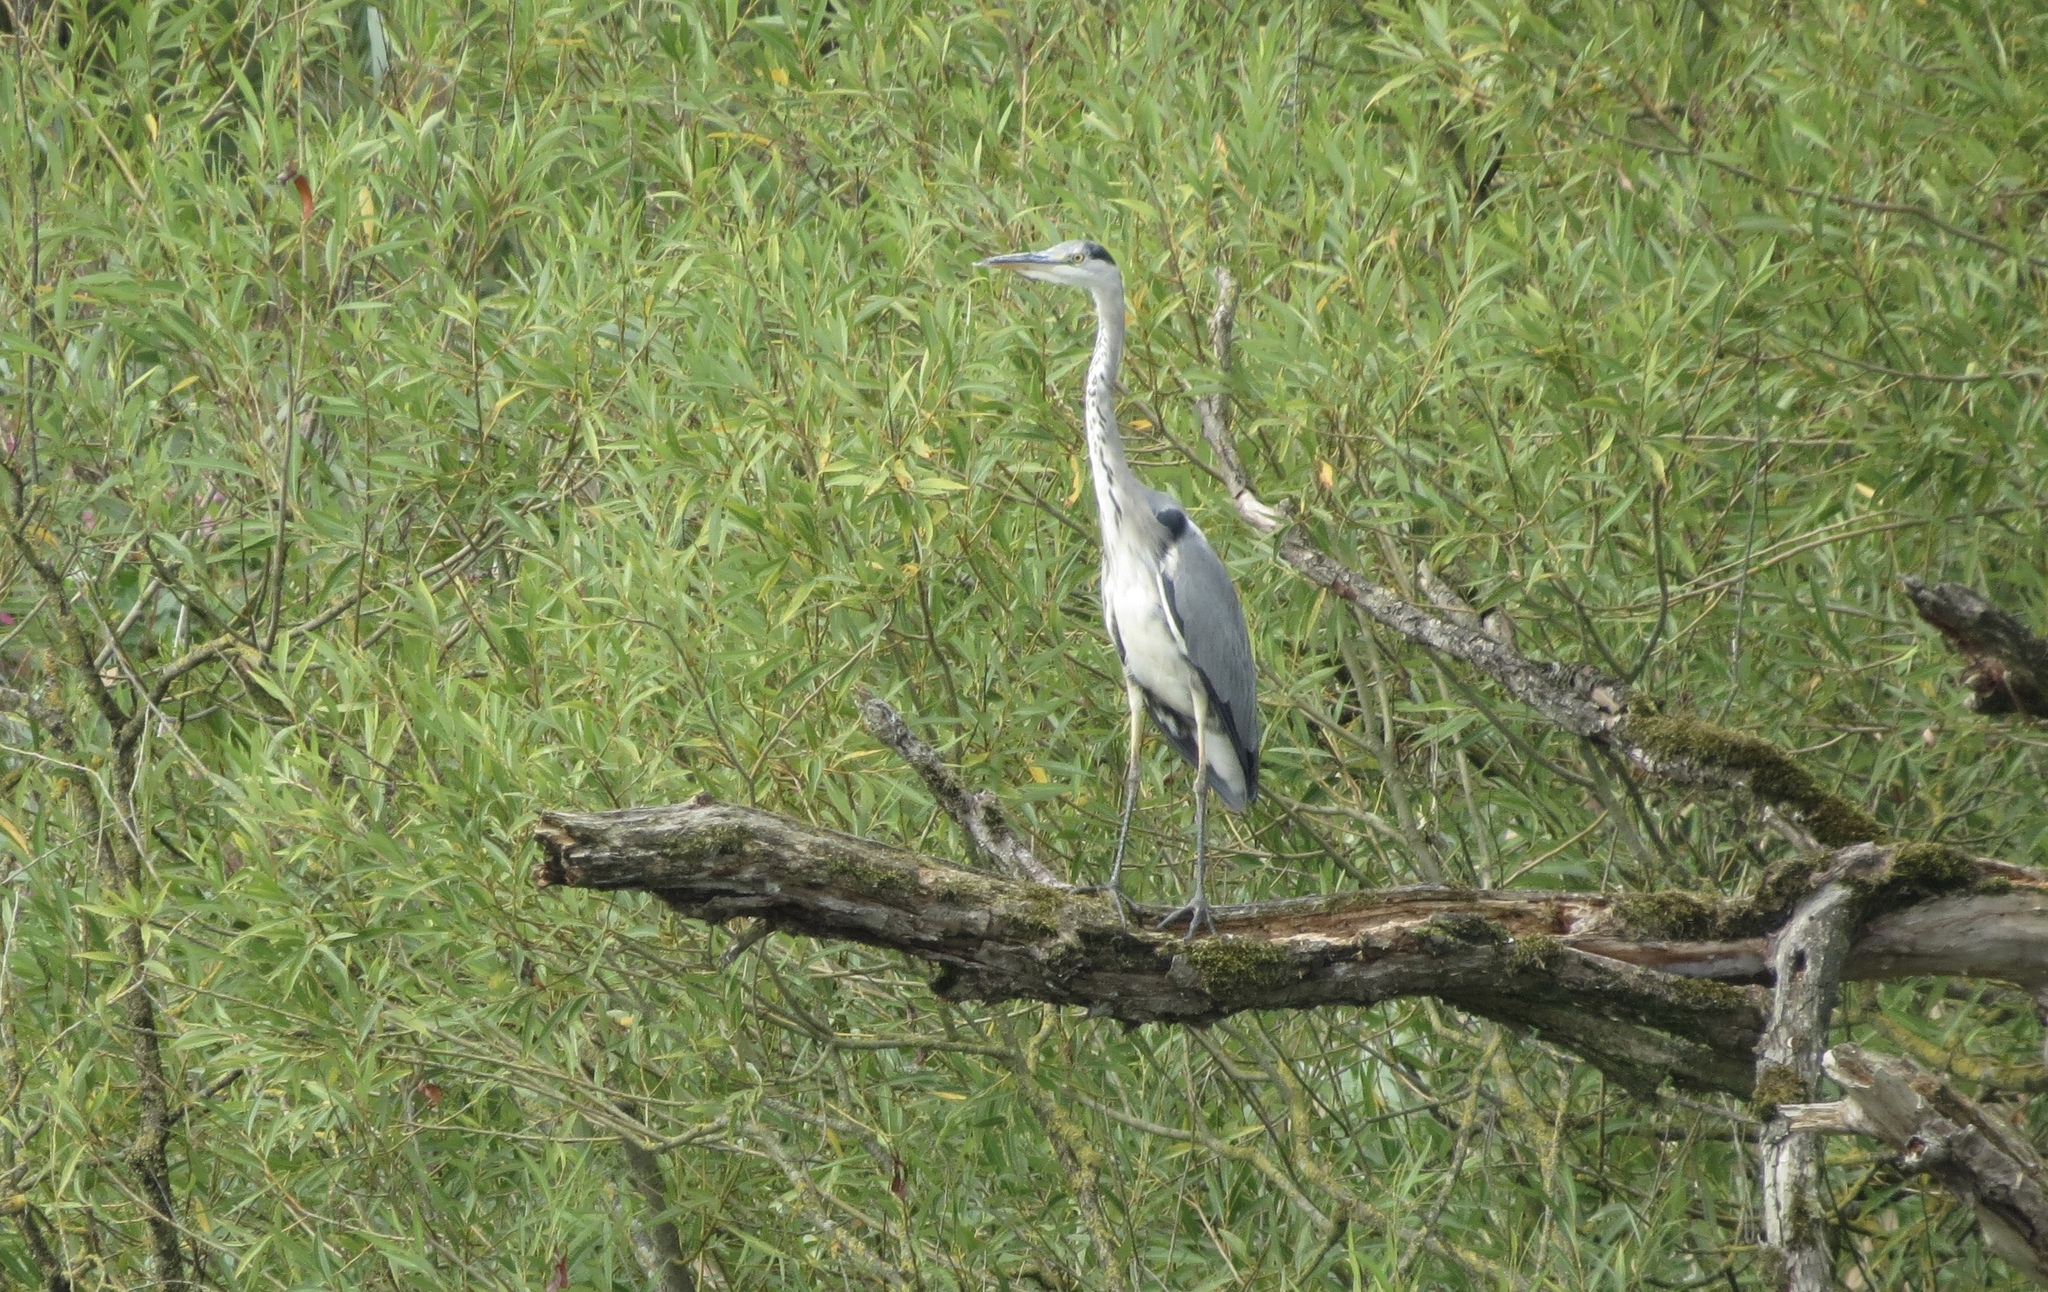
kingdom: Animalia
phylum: Chordata
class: Aves
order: Pelecaniformes
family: Ardeidae
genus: Ardea
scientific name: Ardea cinerea
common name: Grey heron
